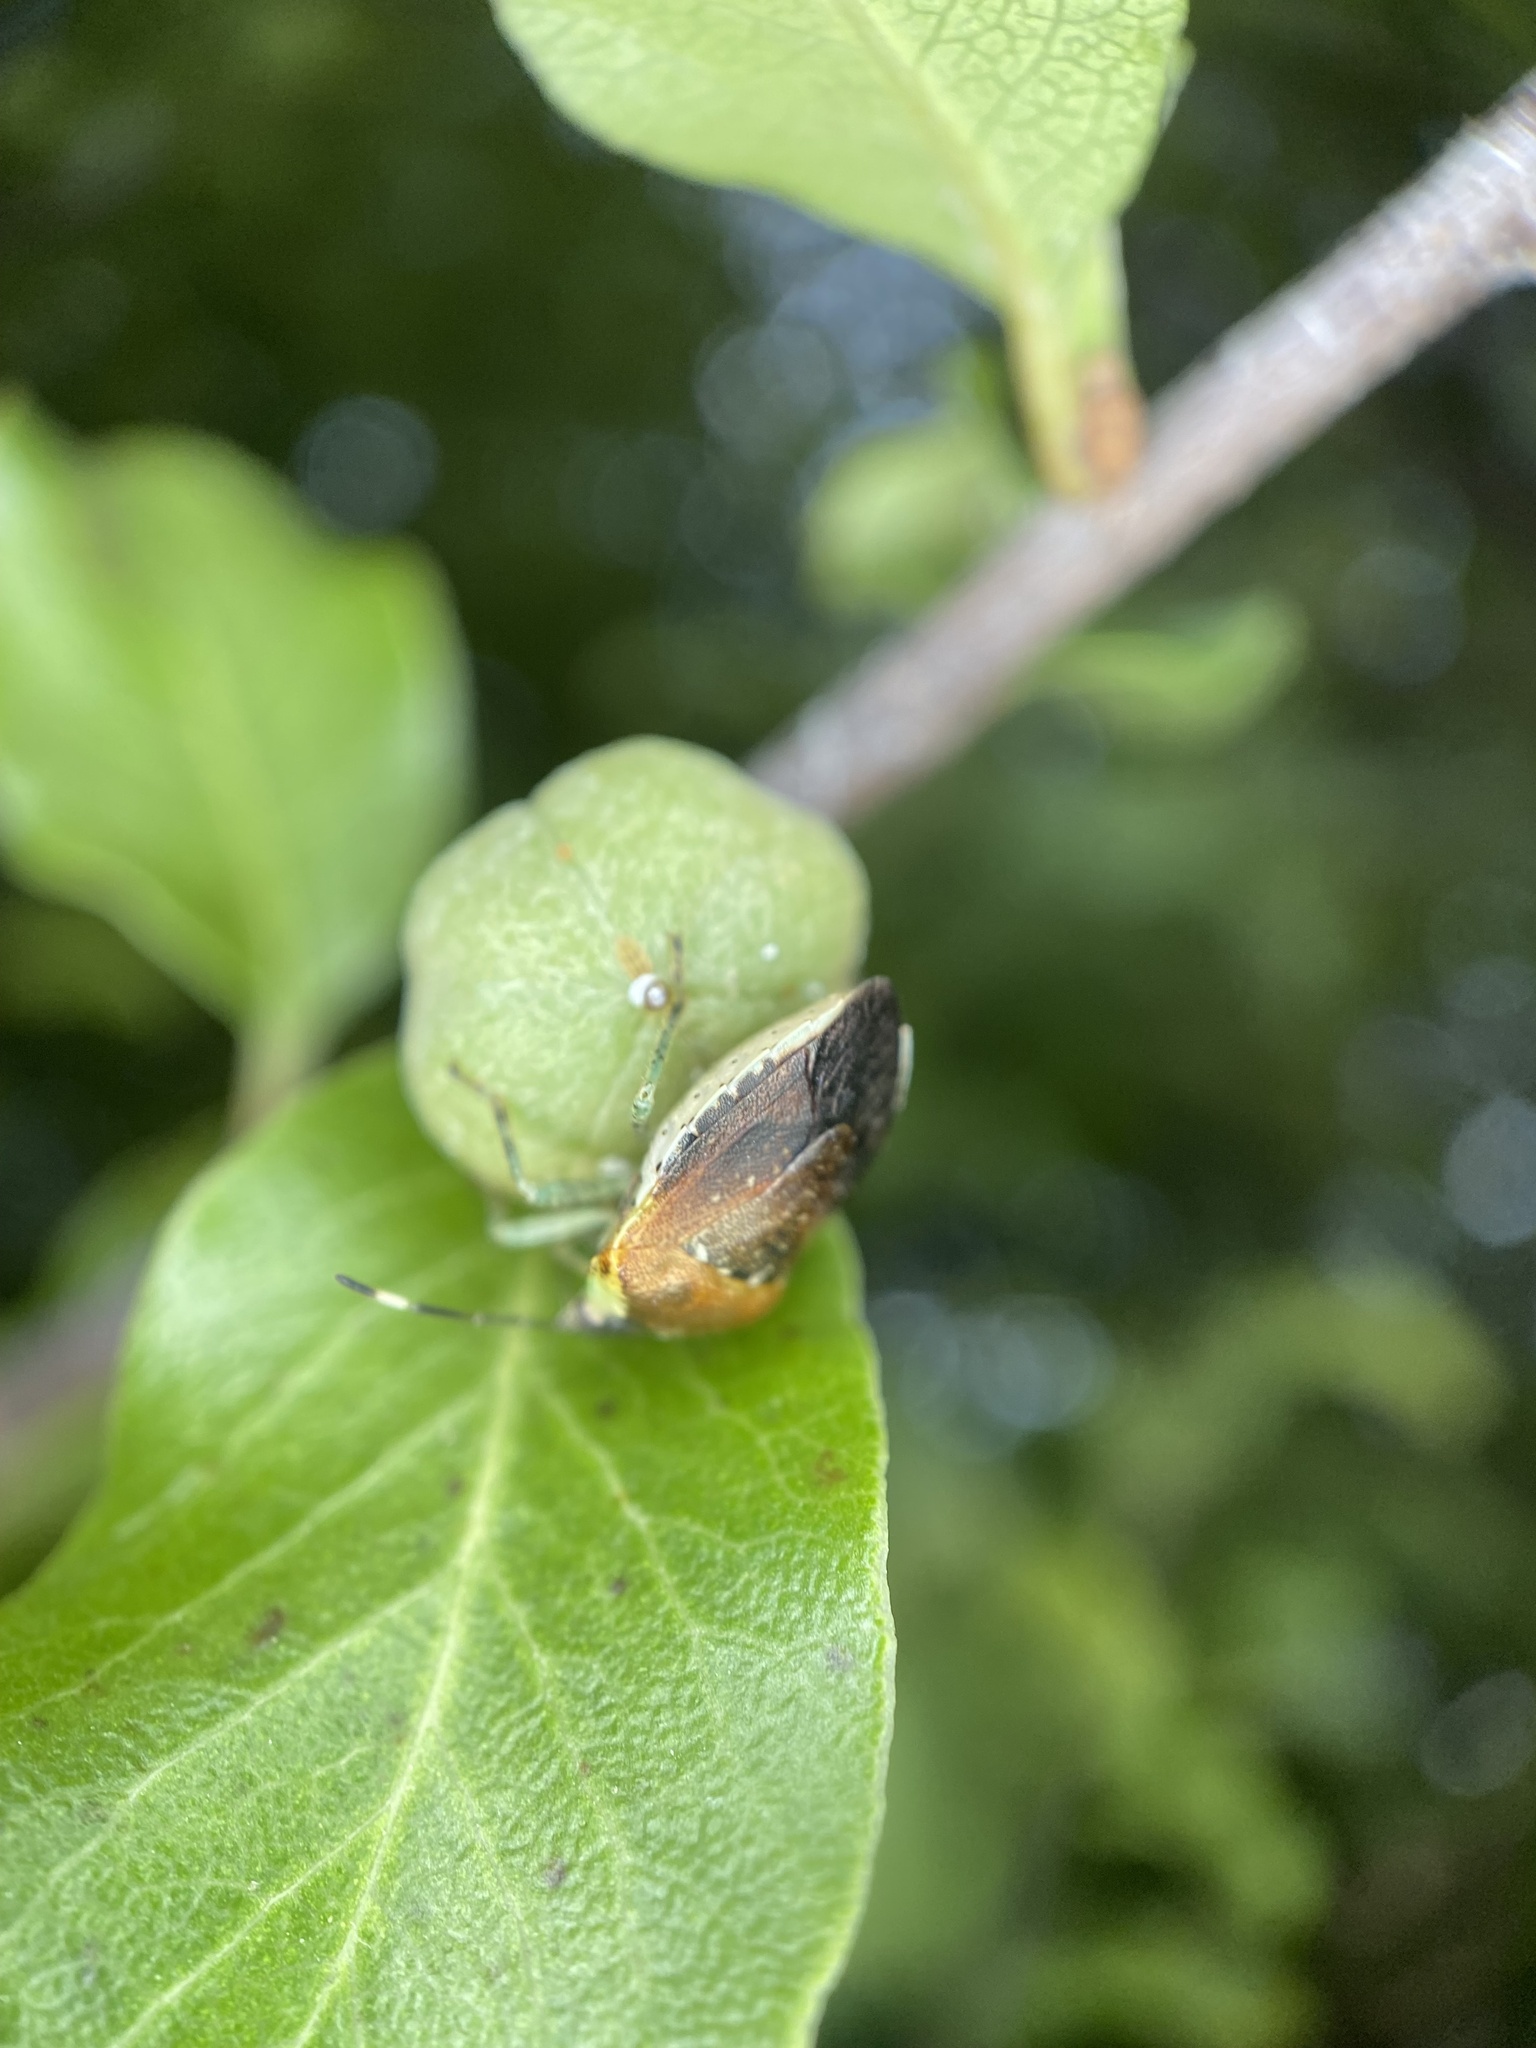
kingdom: Animalia
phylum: Arthropoda
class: Insecta
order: Hemiptera
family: Pentatomidae
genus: Monteithiella
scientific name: Monteithiella
